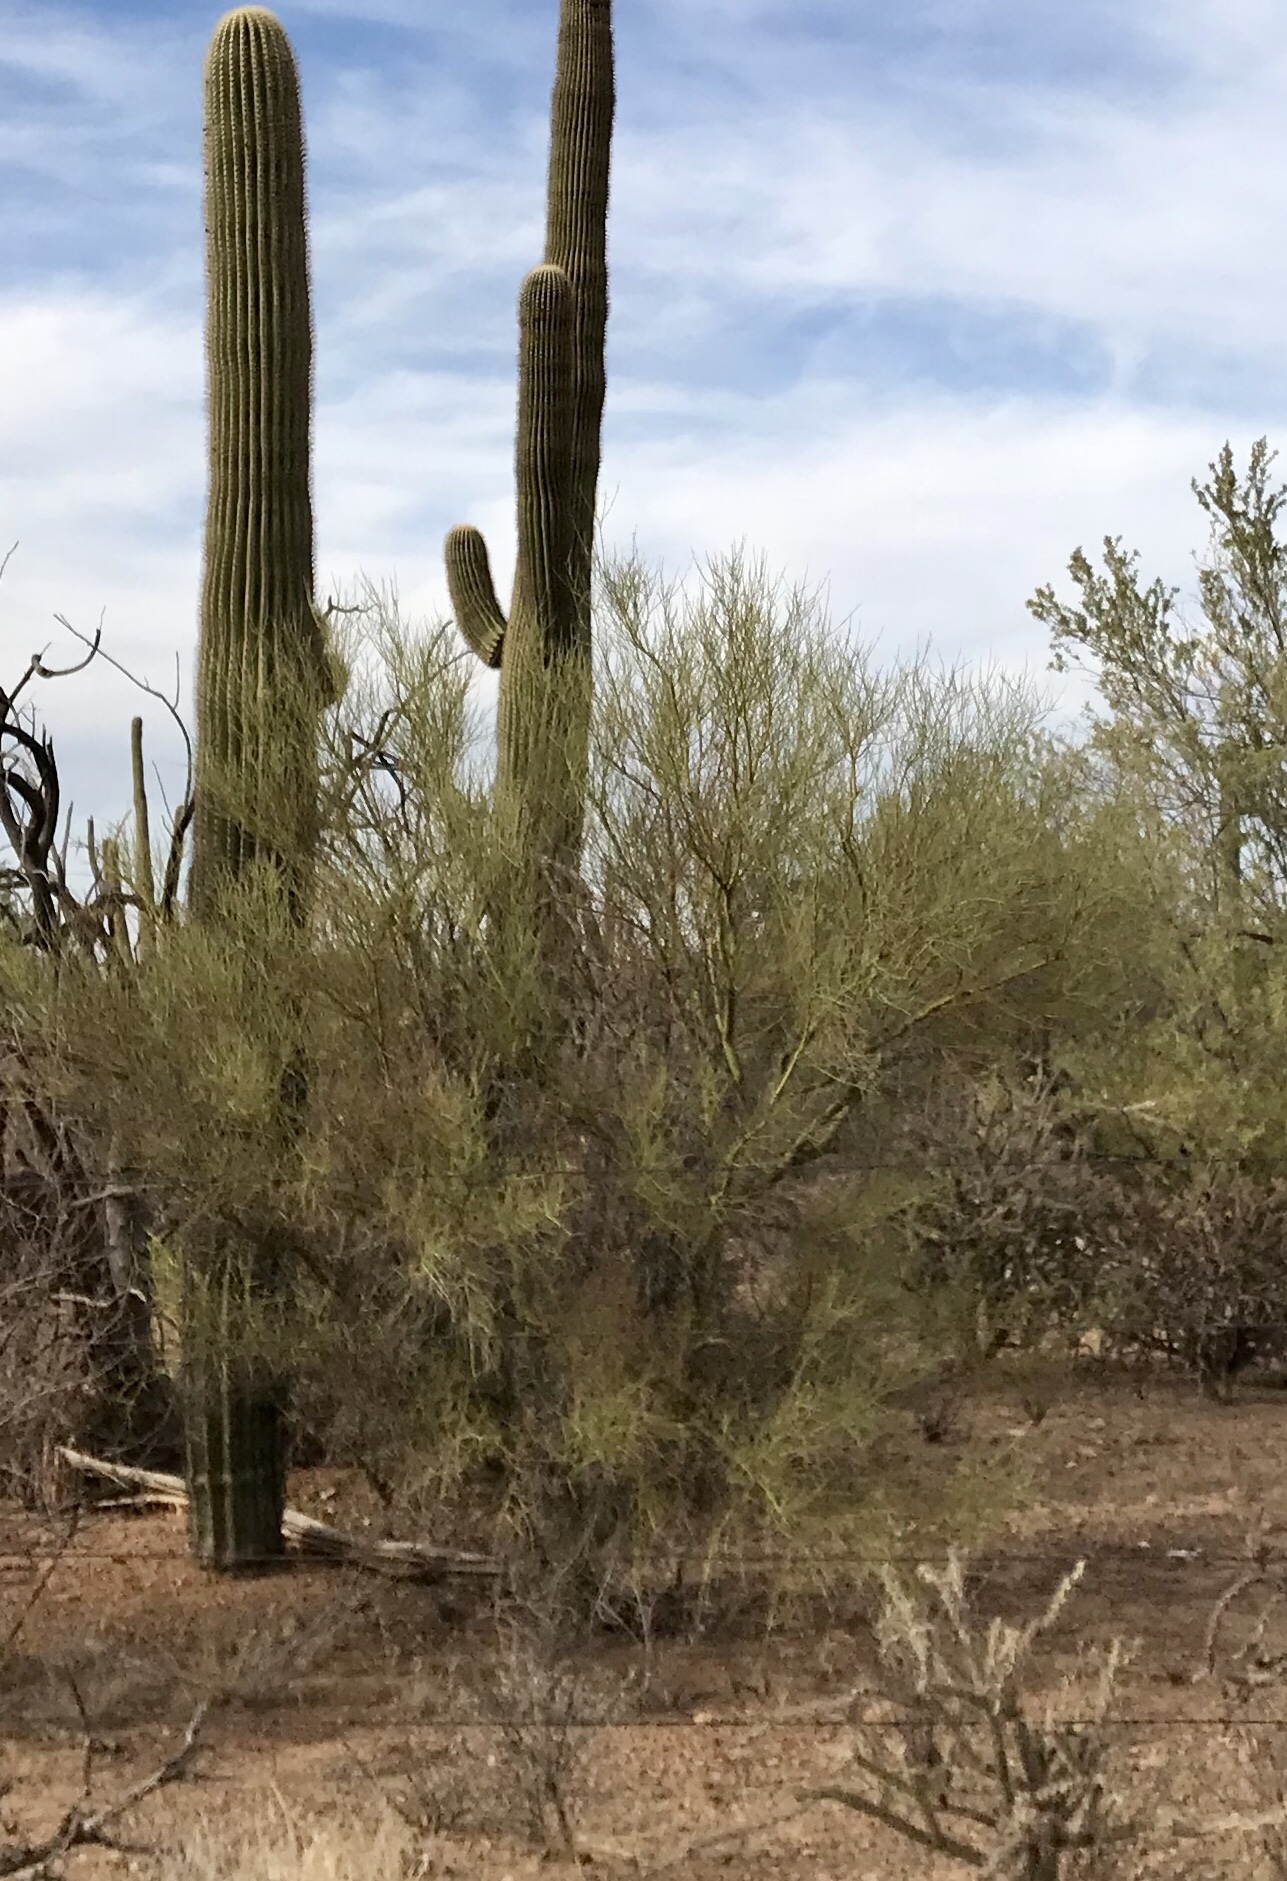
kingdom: Plantae
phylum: Tracheophyta
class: Magnoliopsida
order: Fabales
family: Fabaceae
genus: Parkinsonia
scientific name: Parkinsonia microphylla
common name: Yellow paloverde
